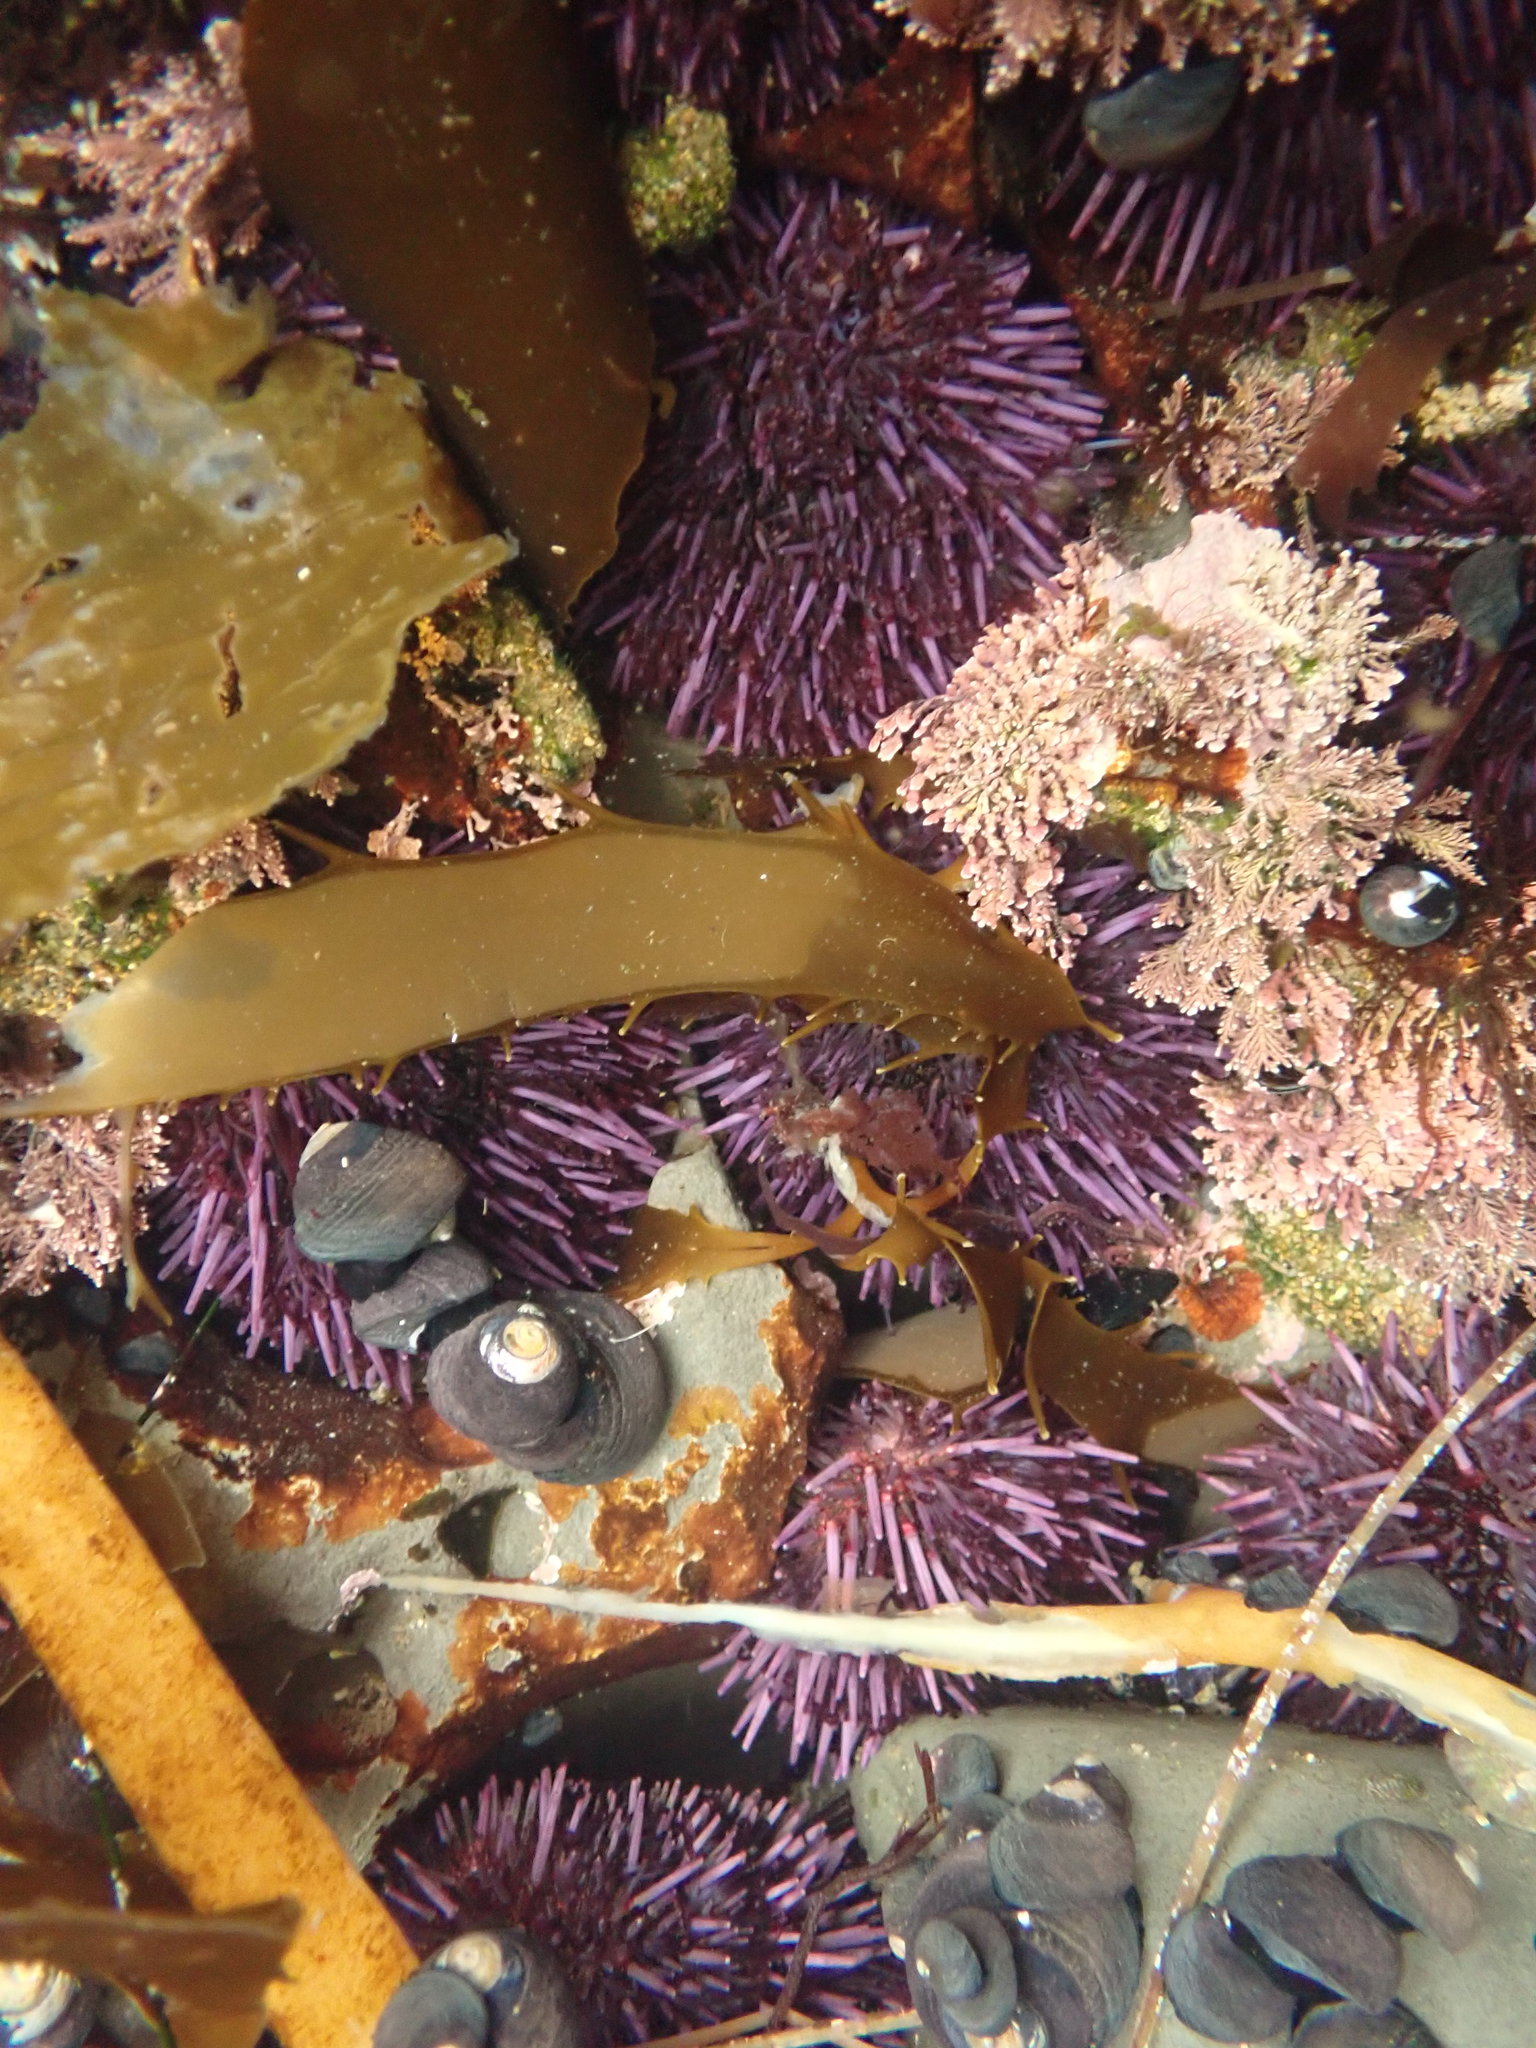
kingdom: Animalia
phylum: Echinodermata
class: Echinoidea
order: Camarodonta
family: Strongylocentrotidae
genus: Strongylocentrotus
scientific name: Strongylocentrotus purpuratus
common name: Purple sea urchin
